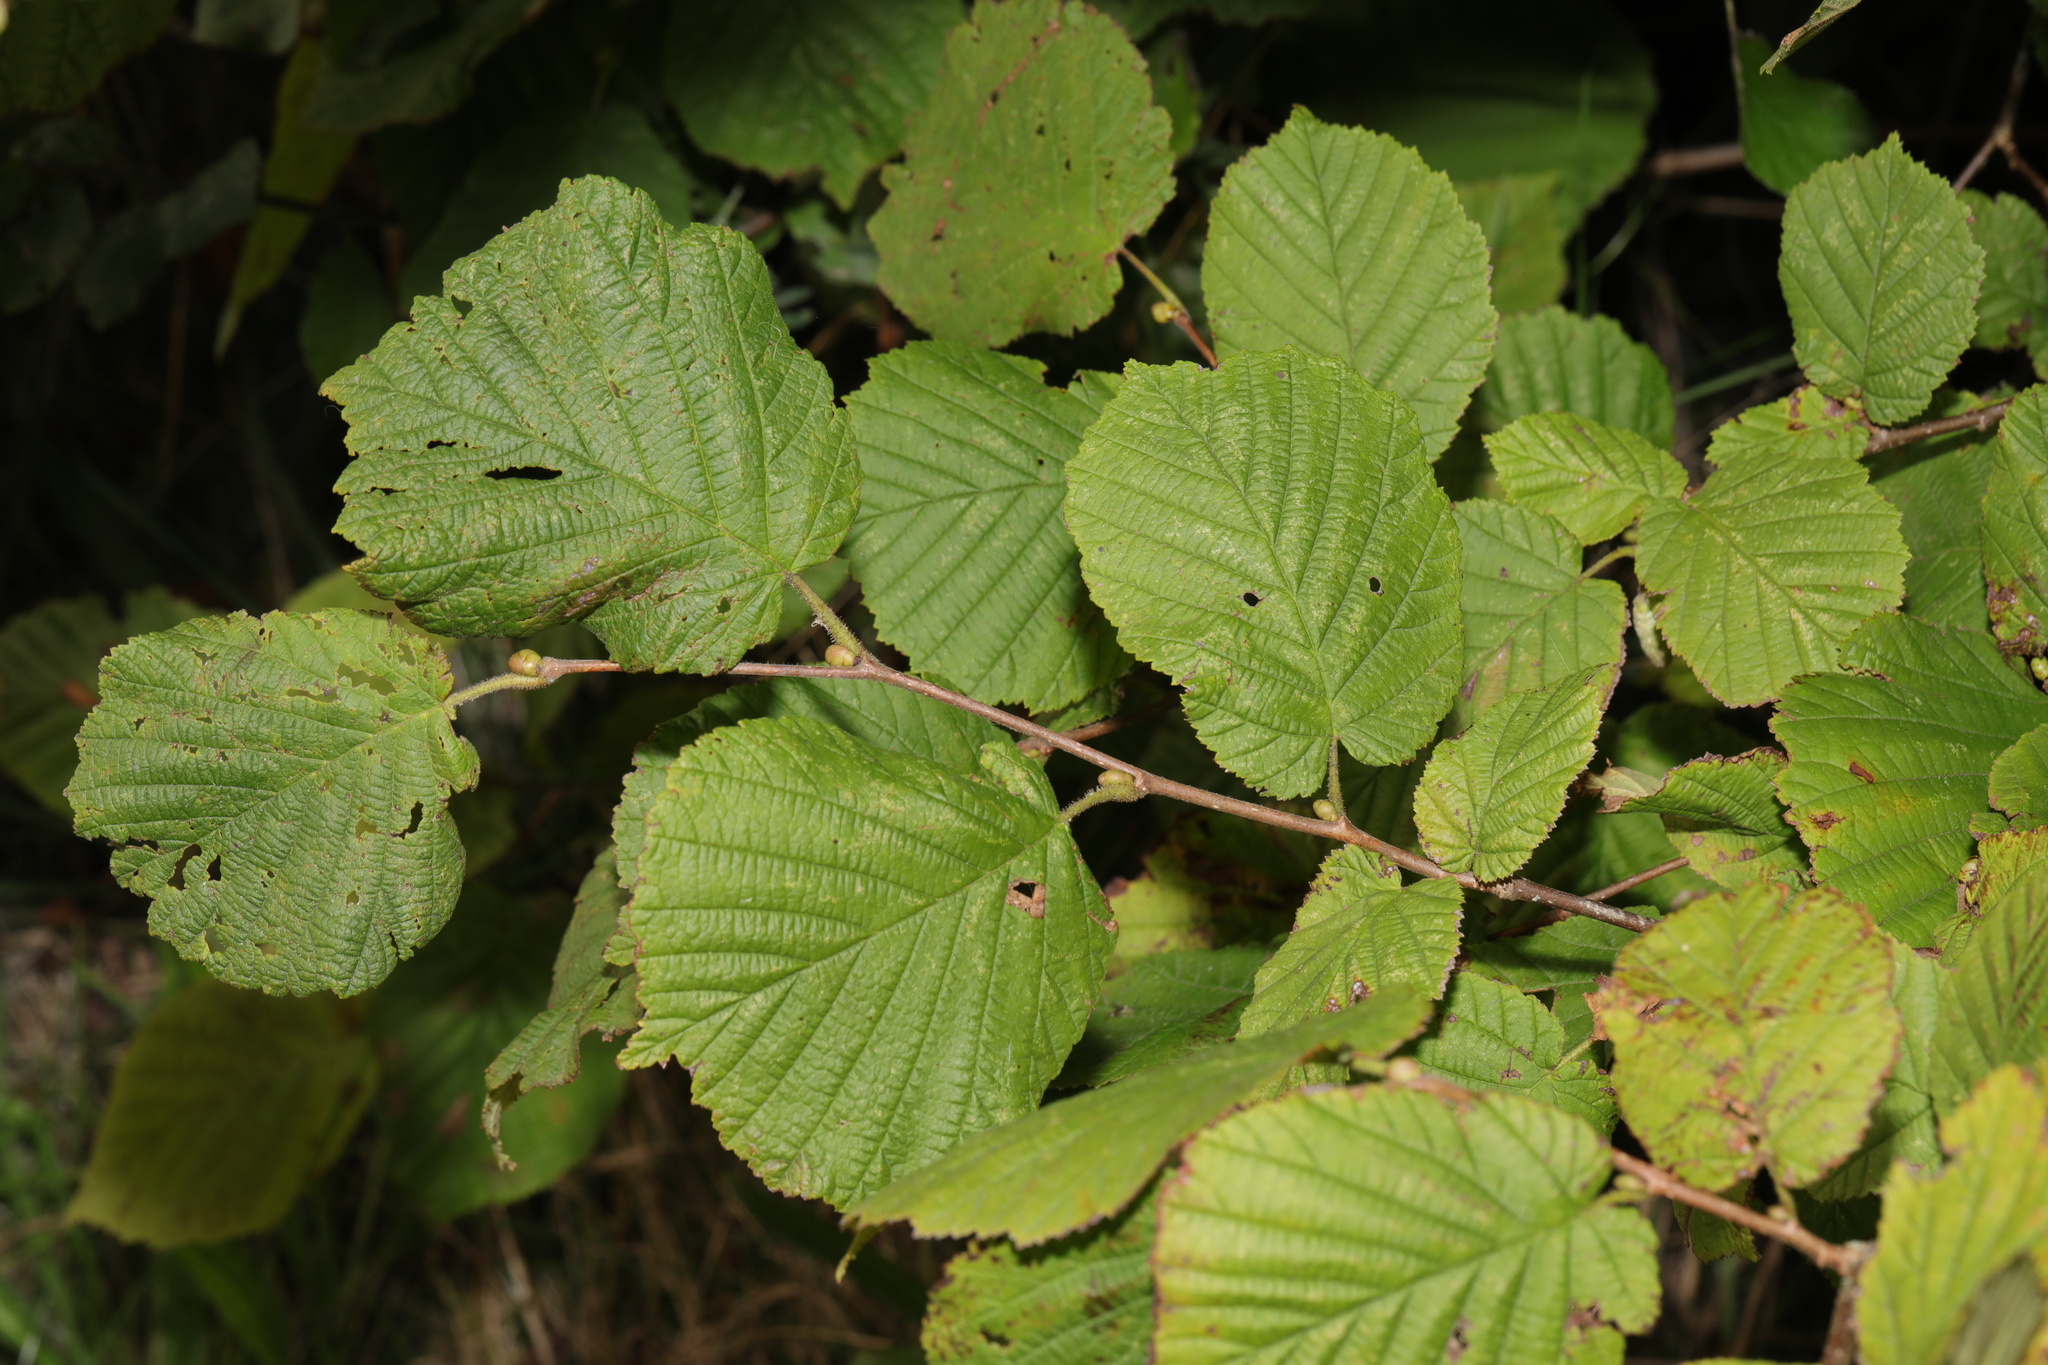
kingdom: Plantae
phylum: Tracheophyta
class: Magnoliopsida
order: Fagales
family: Betulaceae
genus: Corylus
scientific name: Corylus avellana
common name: European hazel
